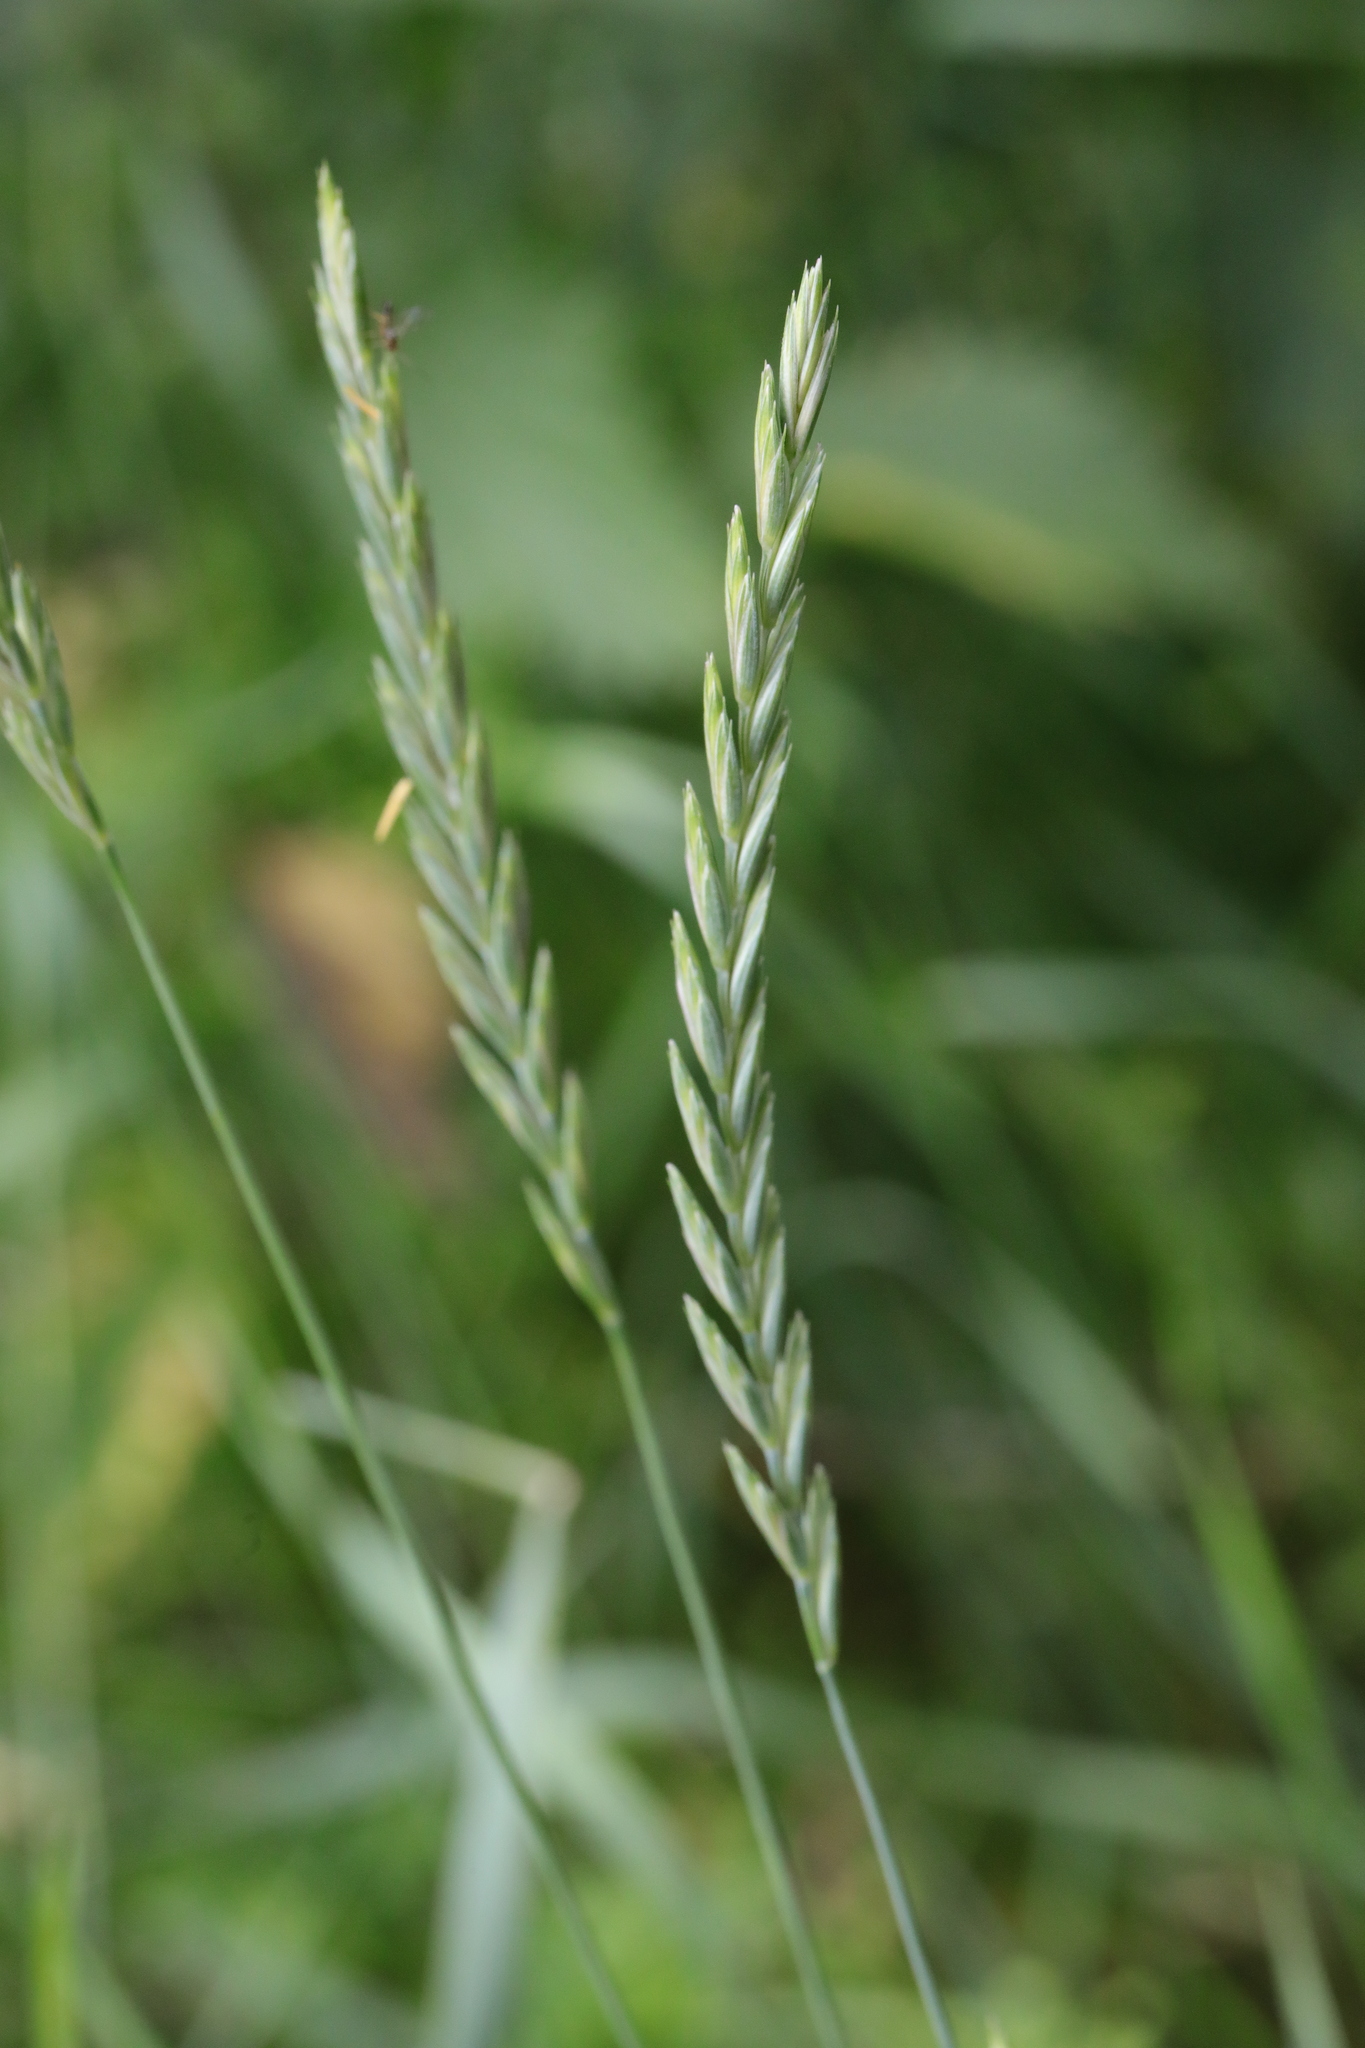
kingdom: Plantae
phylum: Tracheophyta
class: Liliopsida
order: Poales
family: Poaceae
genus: Elymus
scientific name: Elymus repens
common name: Quackgrass
